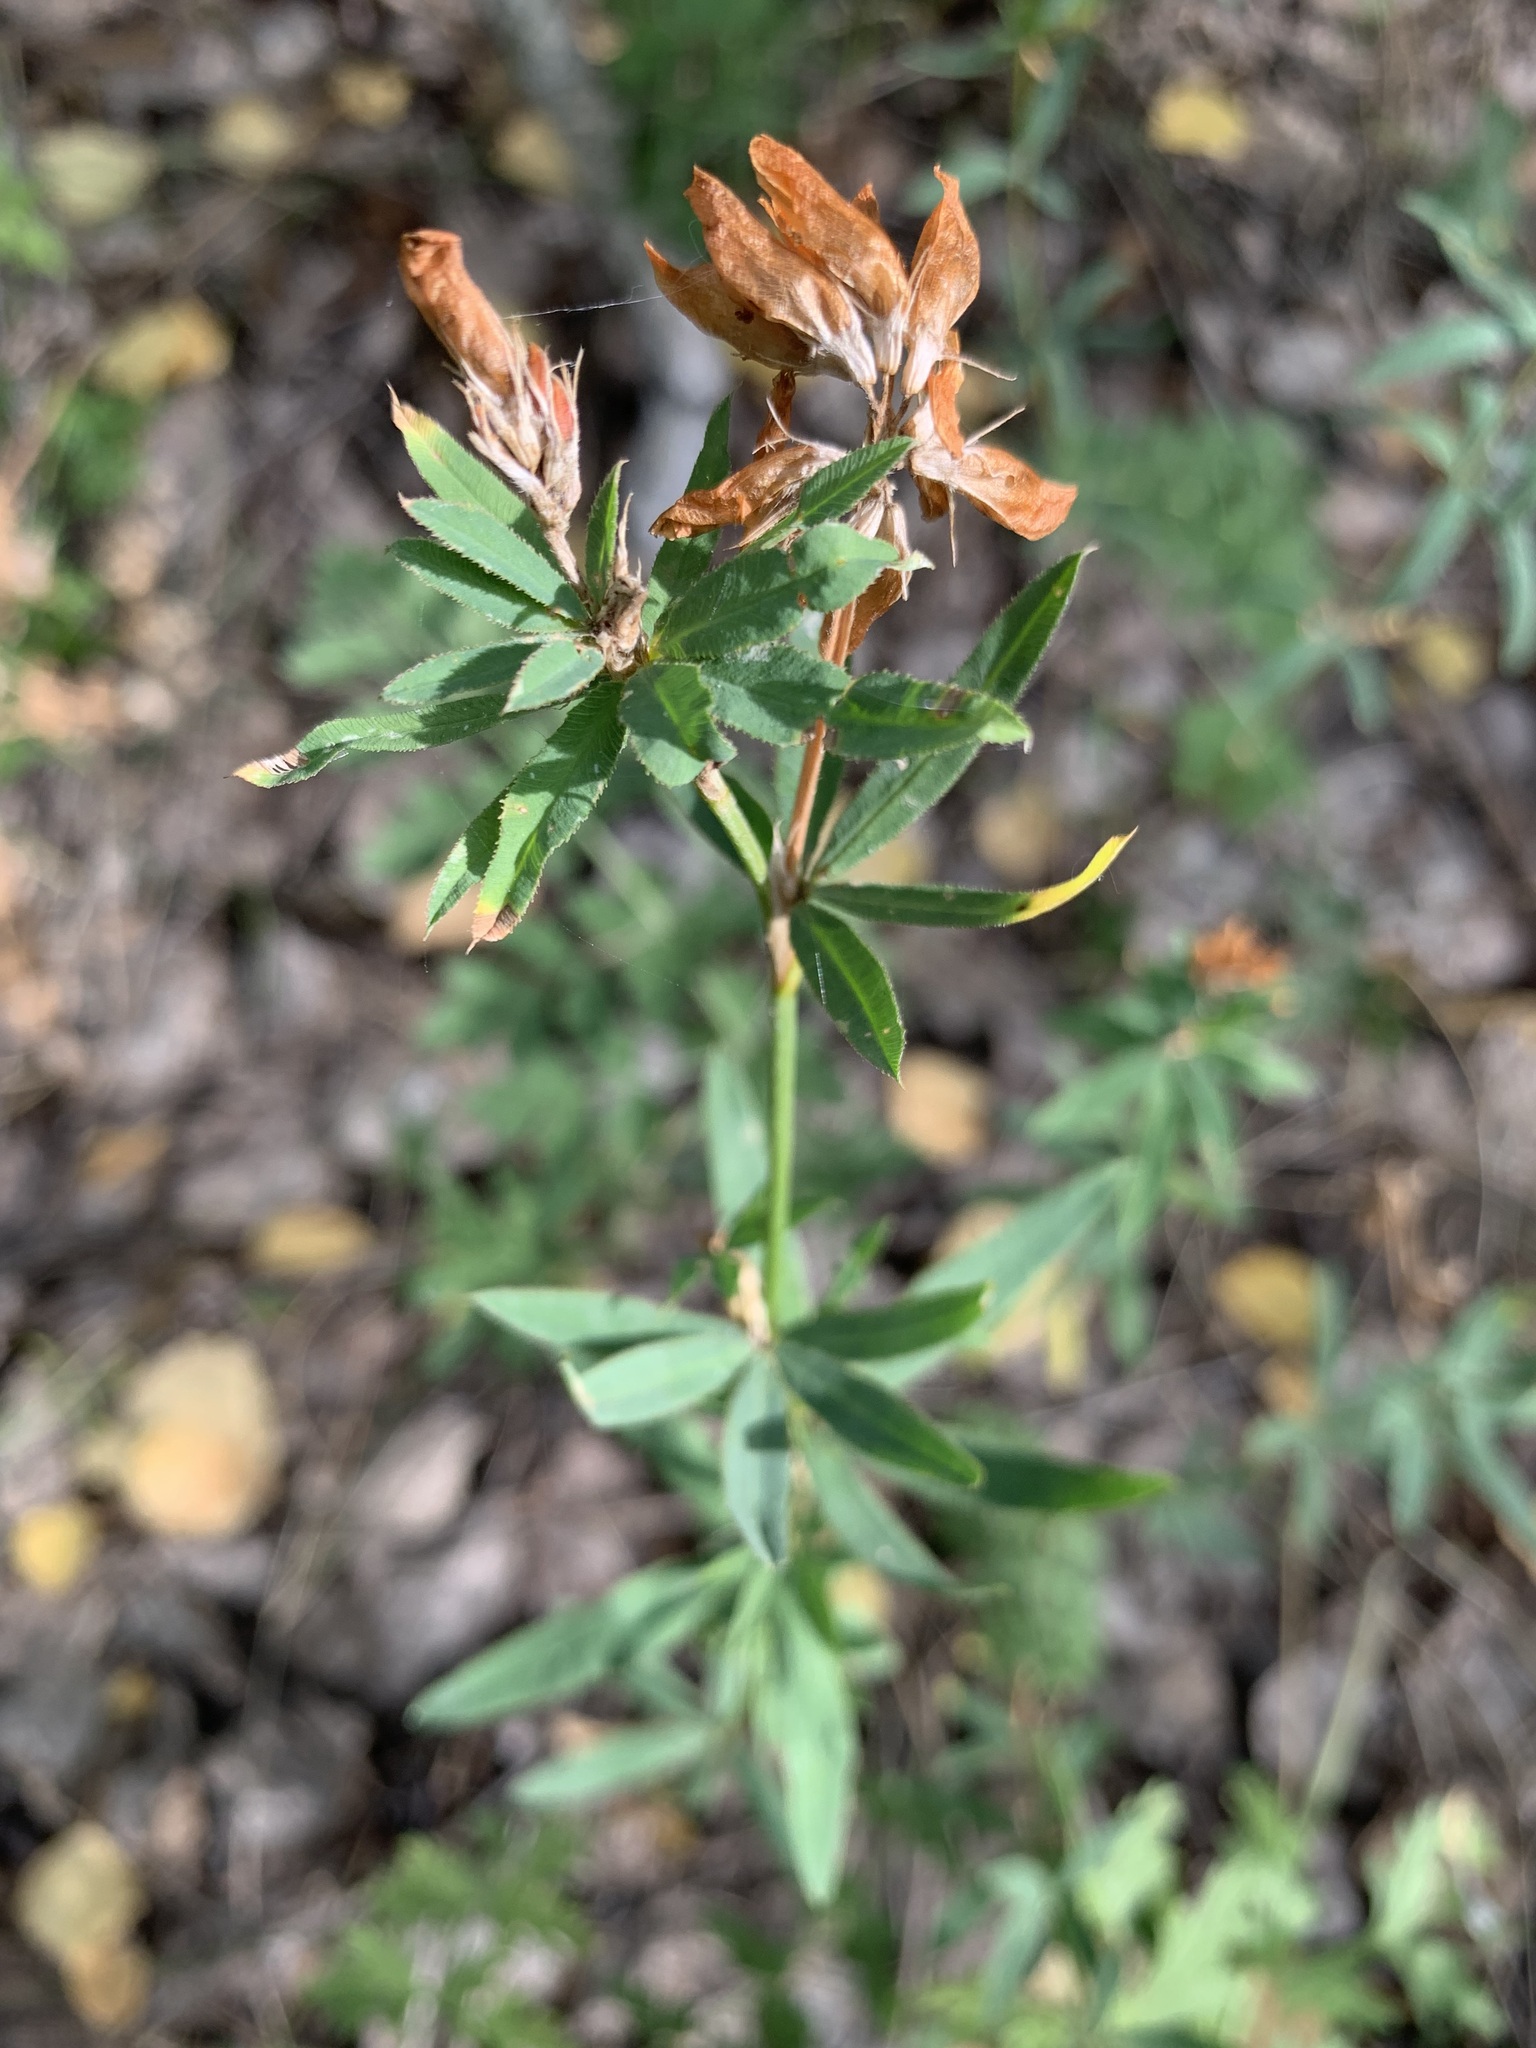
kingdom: Plantae
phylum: Tracheophyta
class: Magnoliopsida
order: Fabales
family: Fabaceae
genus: Trifolium
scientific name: Trifolium lupinaster
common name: Lupine clover
